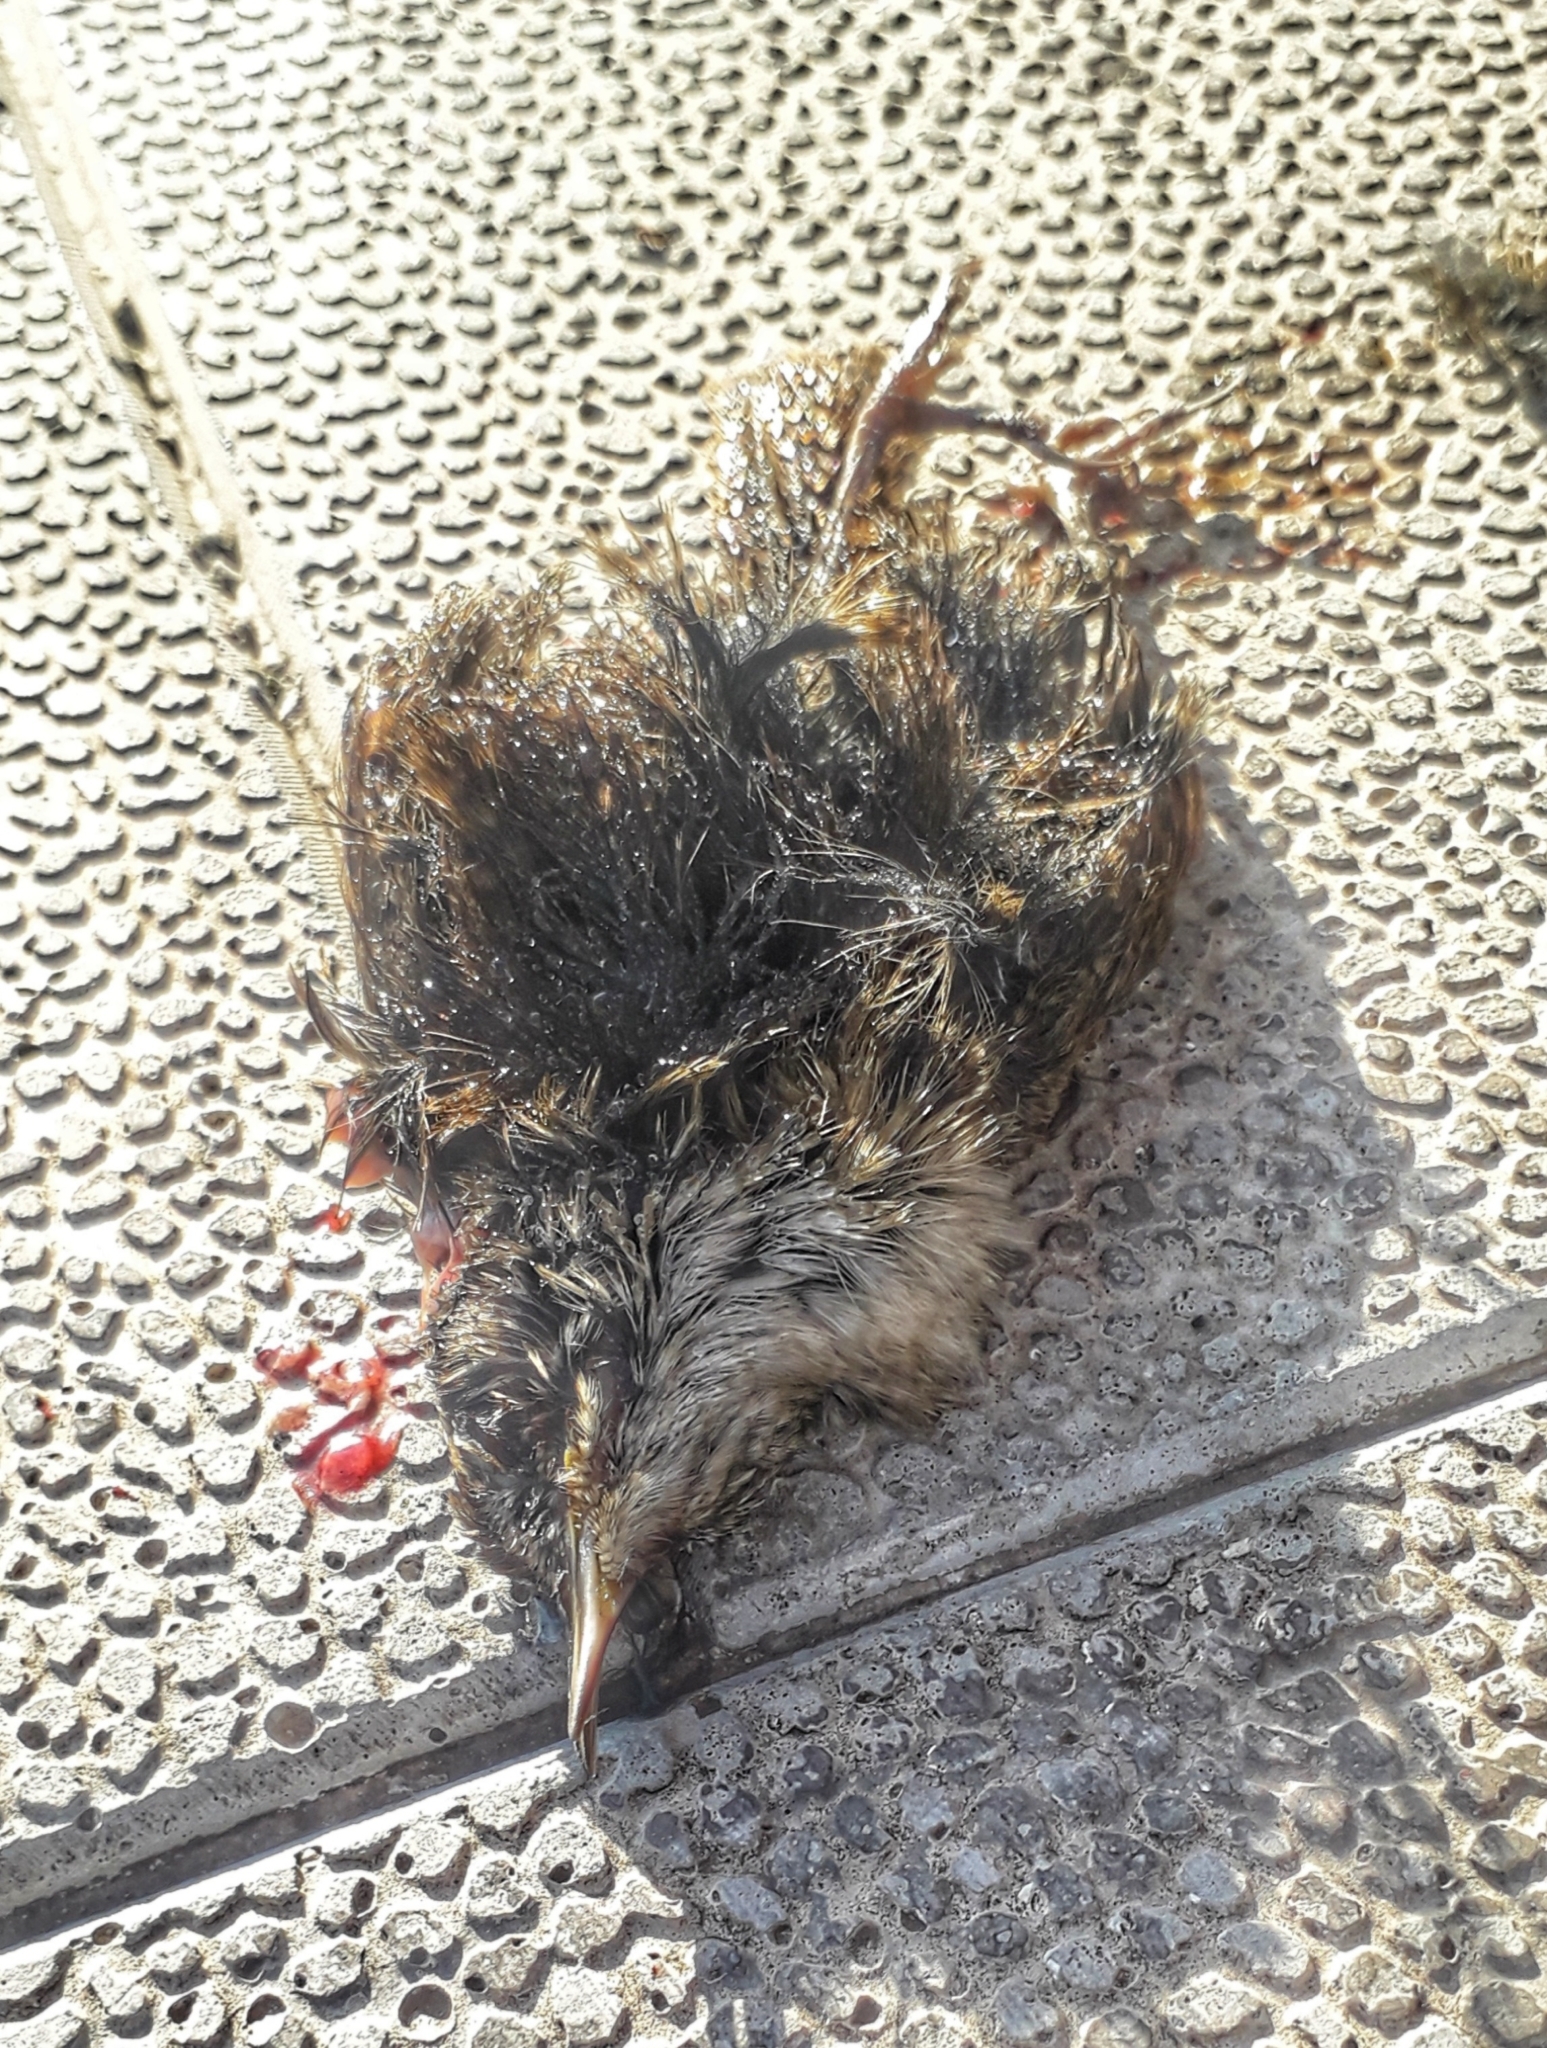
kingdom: Animalia
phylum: Chordata
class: Aves
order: Passeriformes
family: Troglodytidae
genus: Troglodytes
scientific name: Troglodytes troglodytes
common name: Eurasian wren
